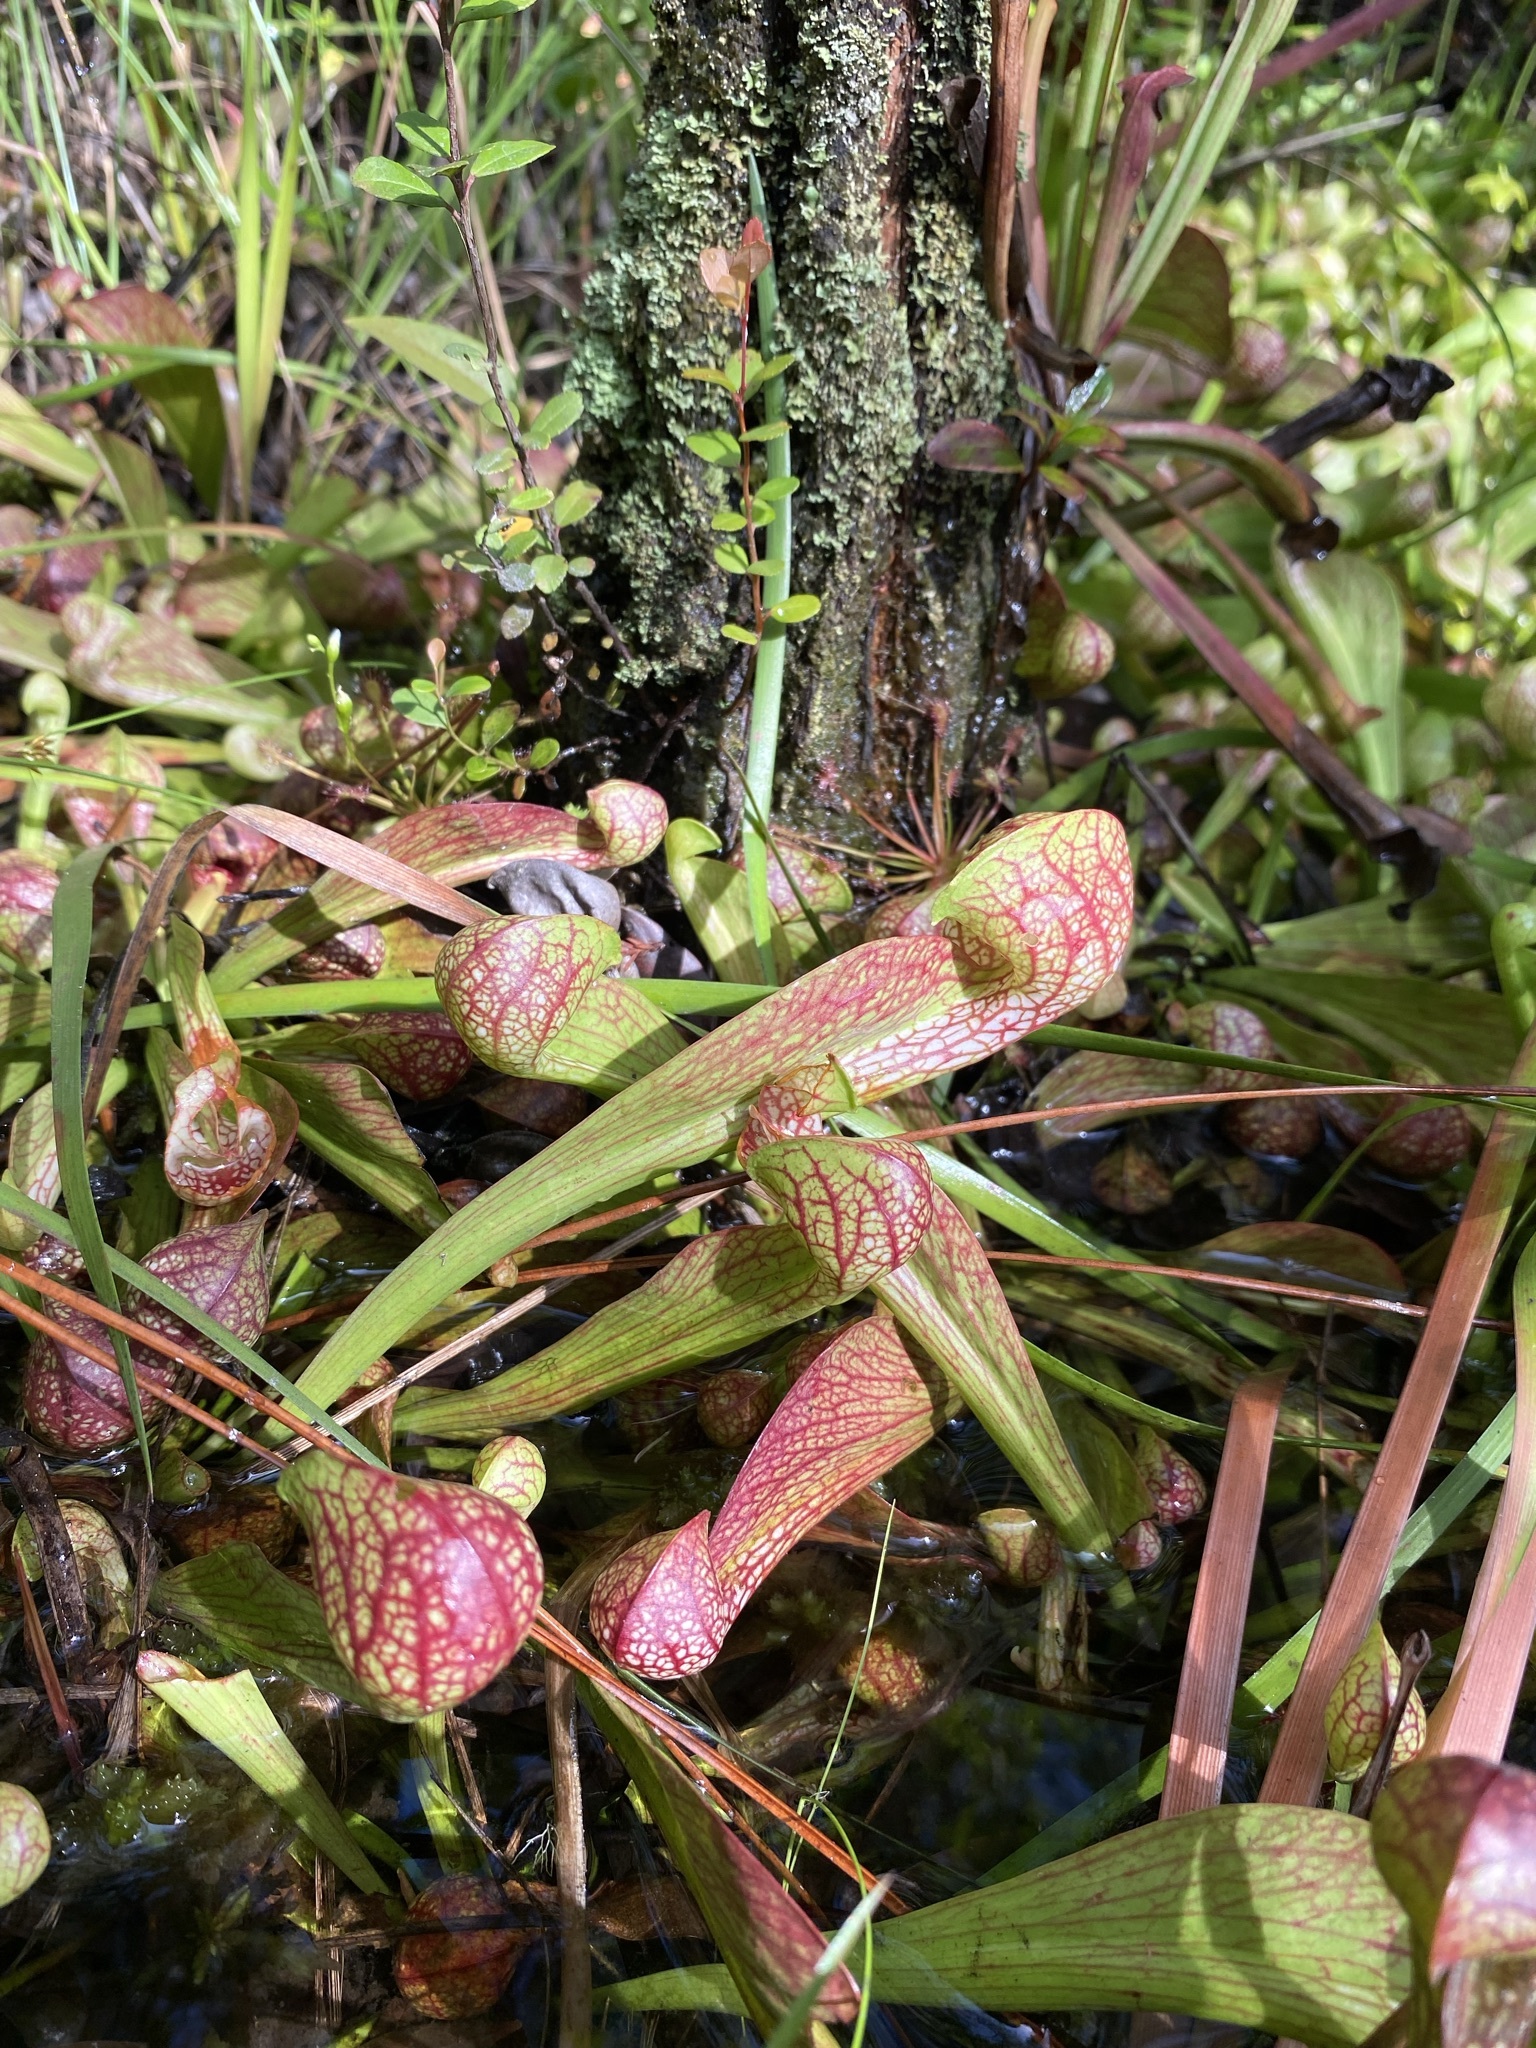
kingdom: Plantae
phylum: Tracheophyta
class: Magnoliopsida
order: Ericales
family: Sarraceniaceae
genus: Sarracenia
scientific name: Sarracenia psittacina
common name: Parrot pitcherplant
